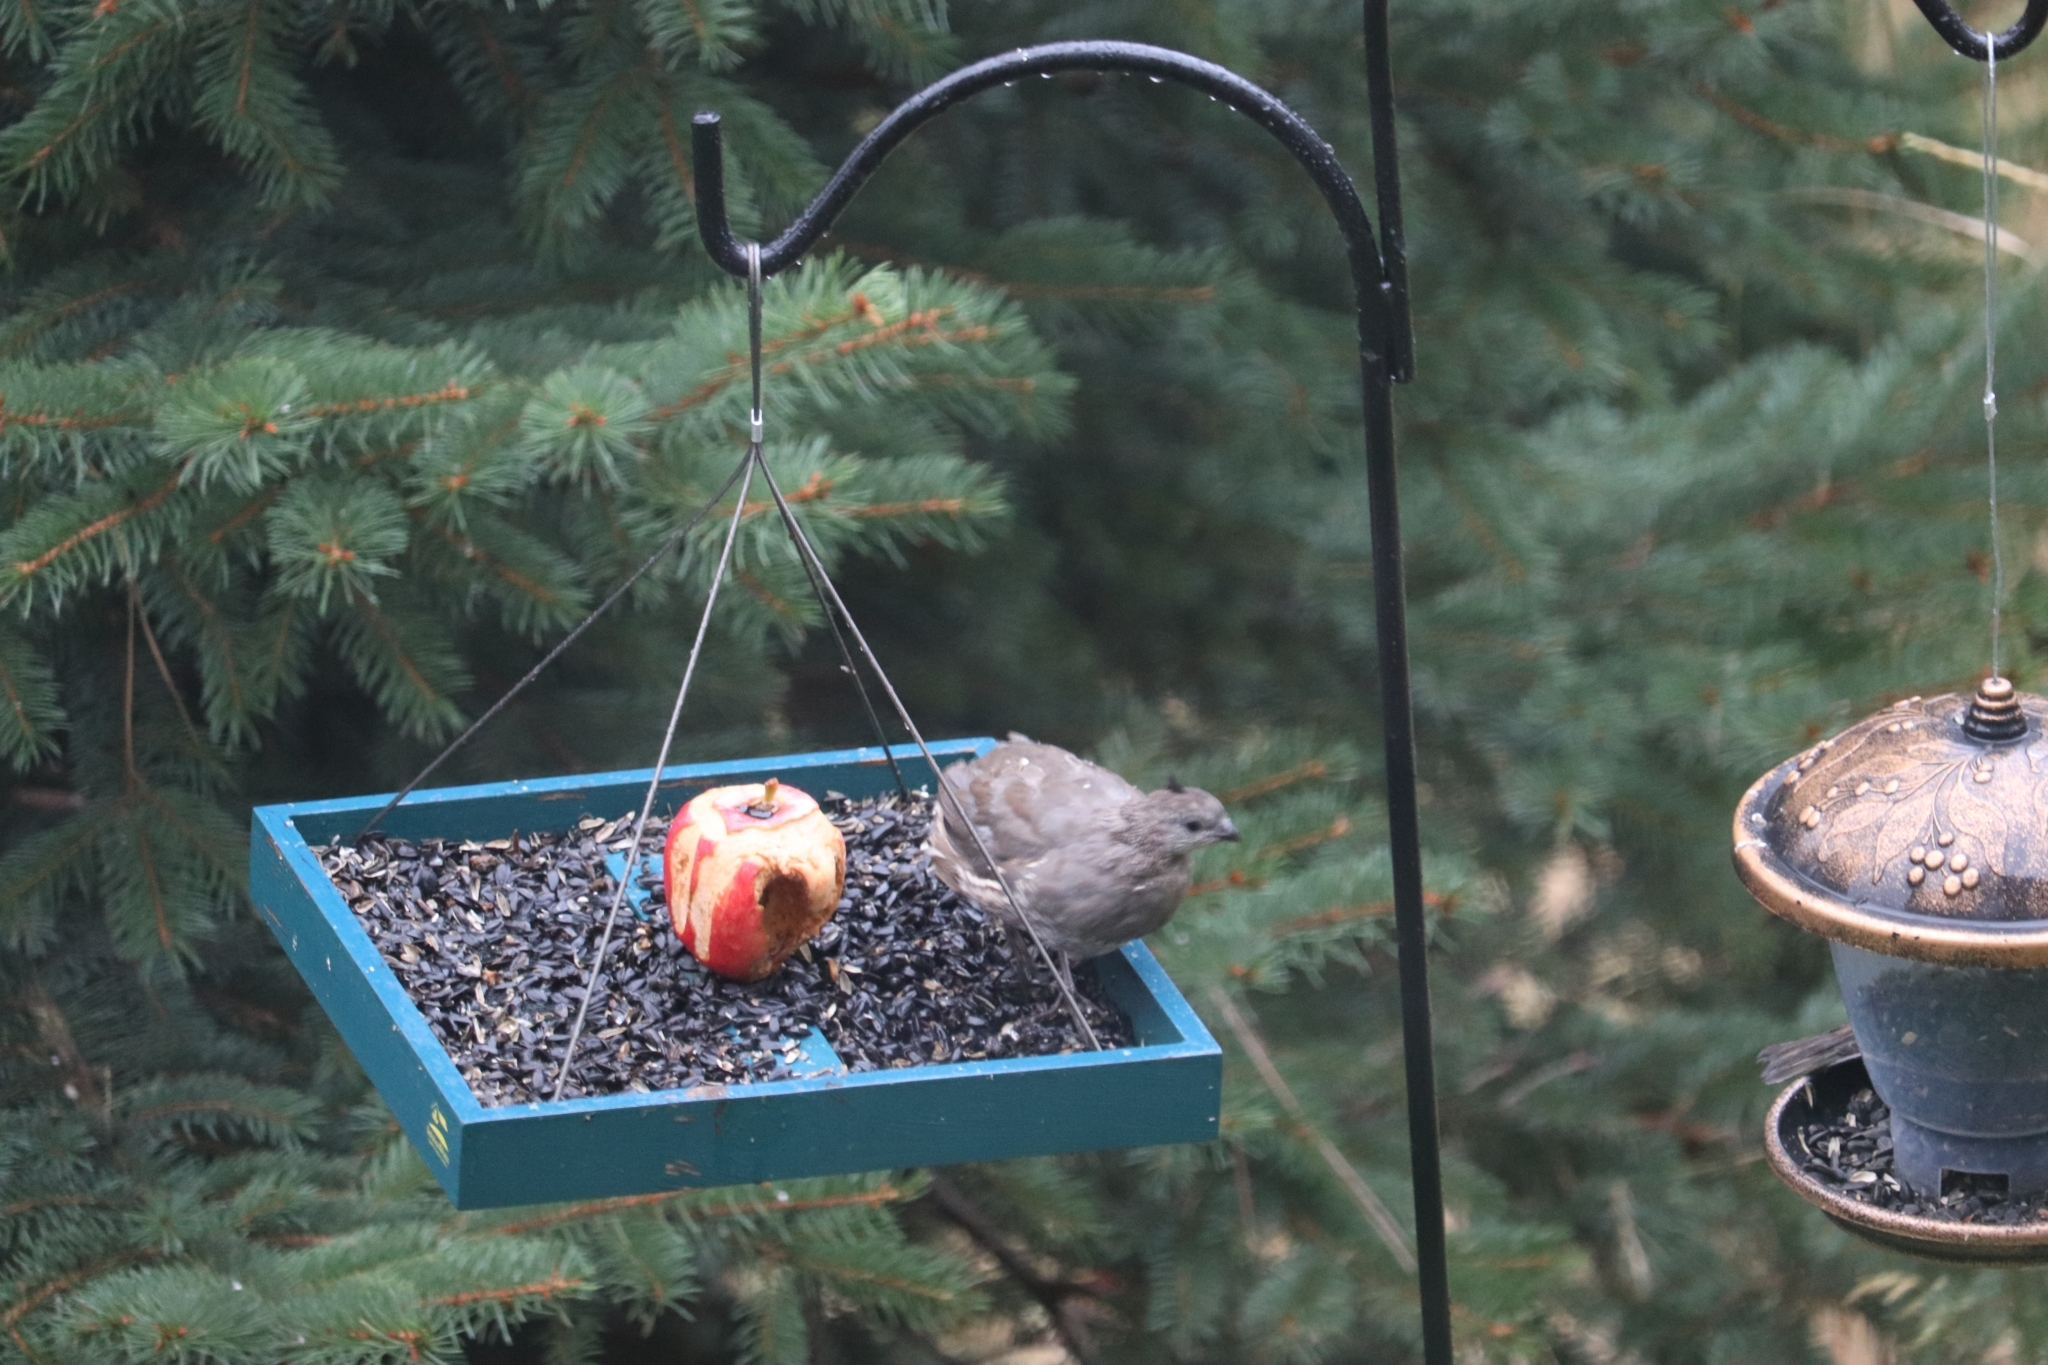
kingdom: Animalia
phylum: Chordata
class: Aves
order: Galliformes
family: Odontophoridae
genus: Callipepla
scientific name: Callipepla californica
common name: California quail
